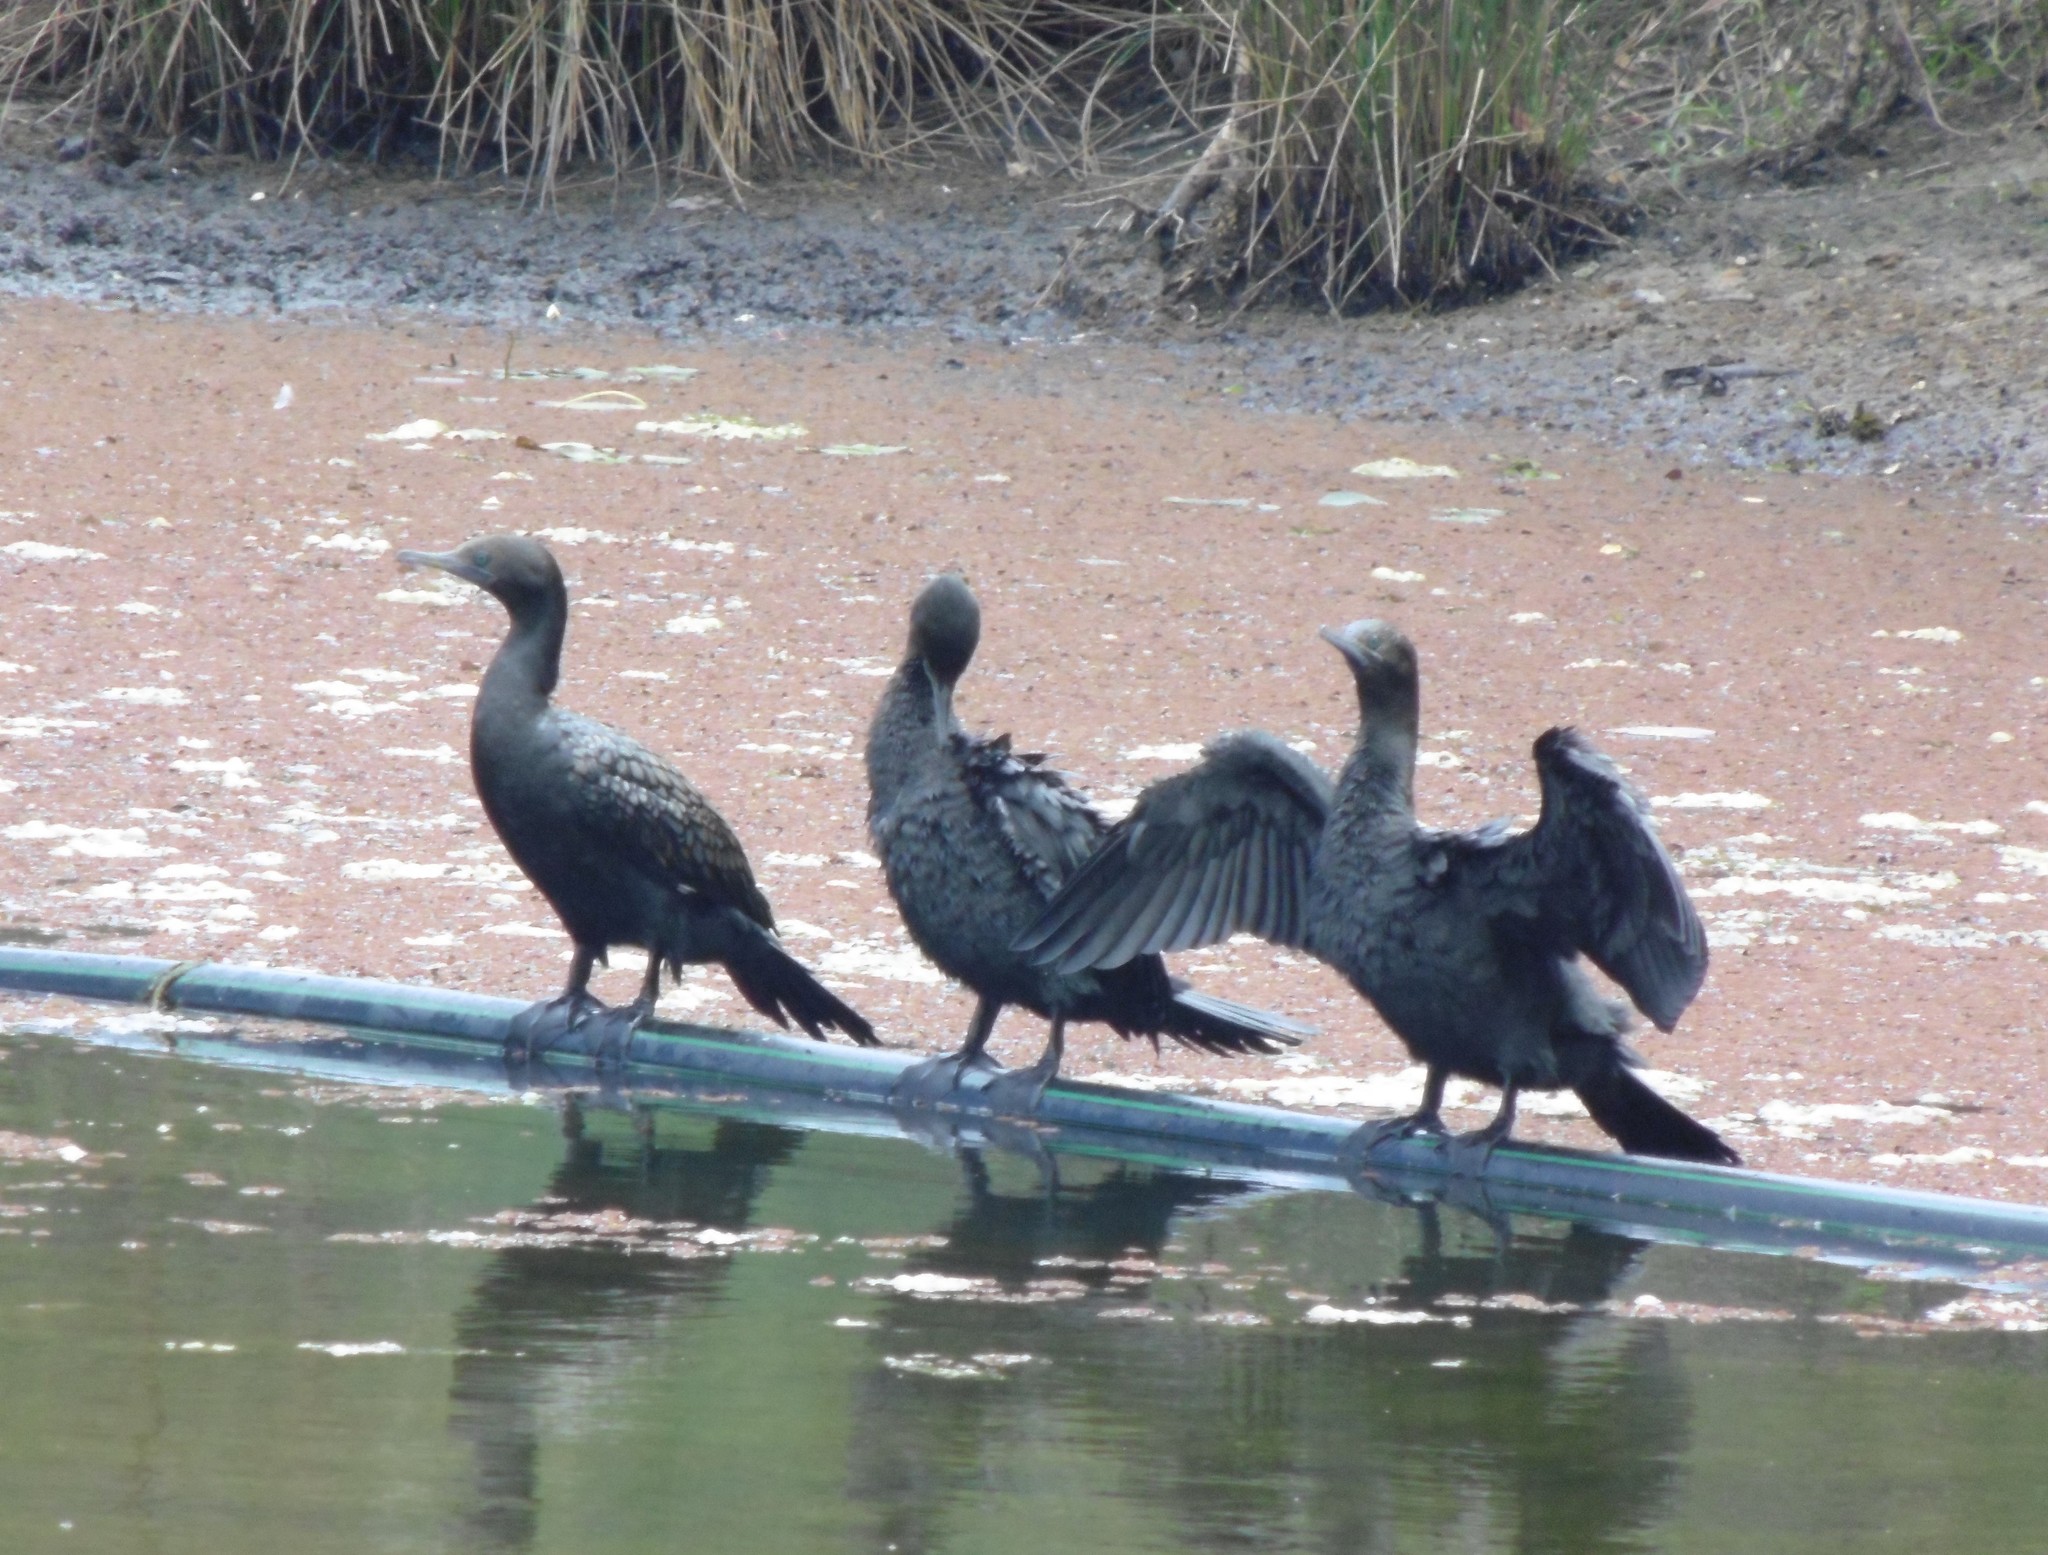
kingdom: Animalia
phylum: Chordata
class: Aves
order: Suliformes
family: Phalacrocoracidae
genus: Phalacrocorax
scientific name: Phalacrocorax sulcirostris
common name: Little black cormorant
